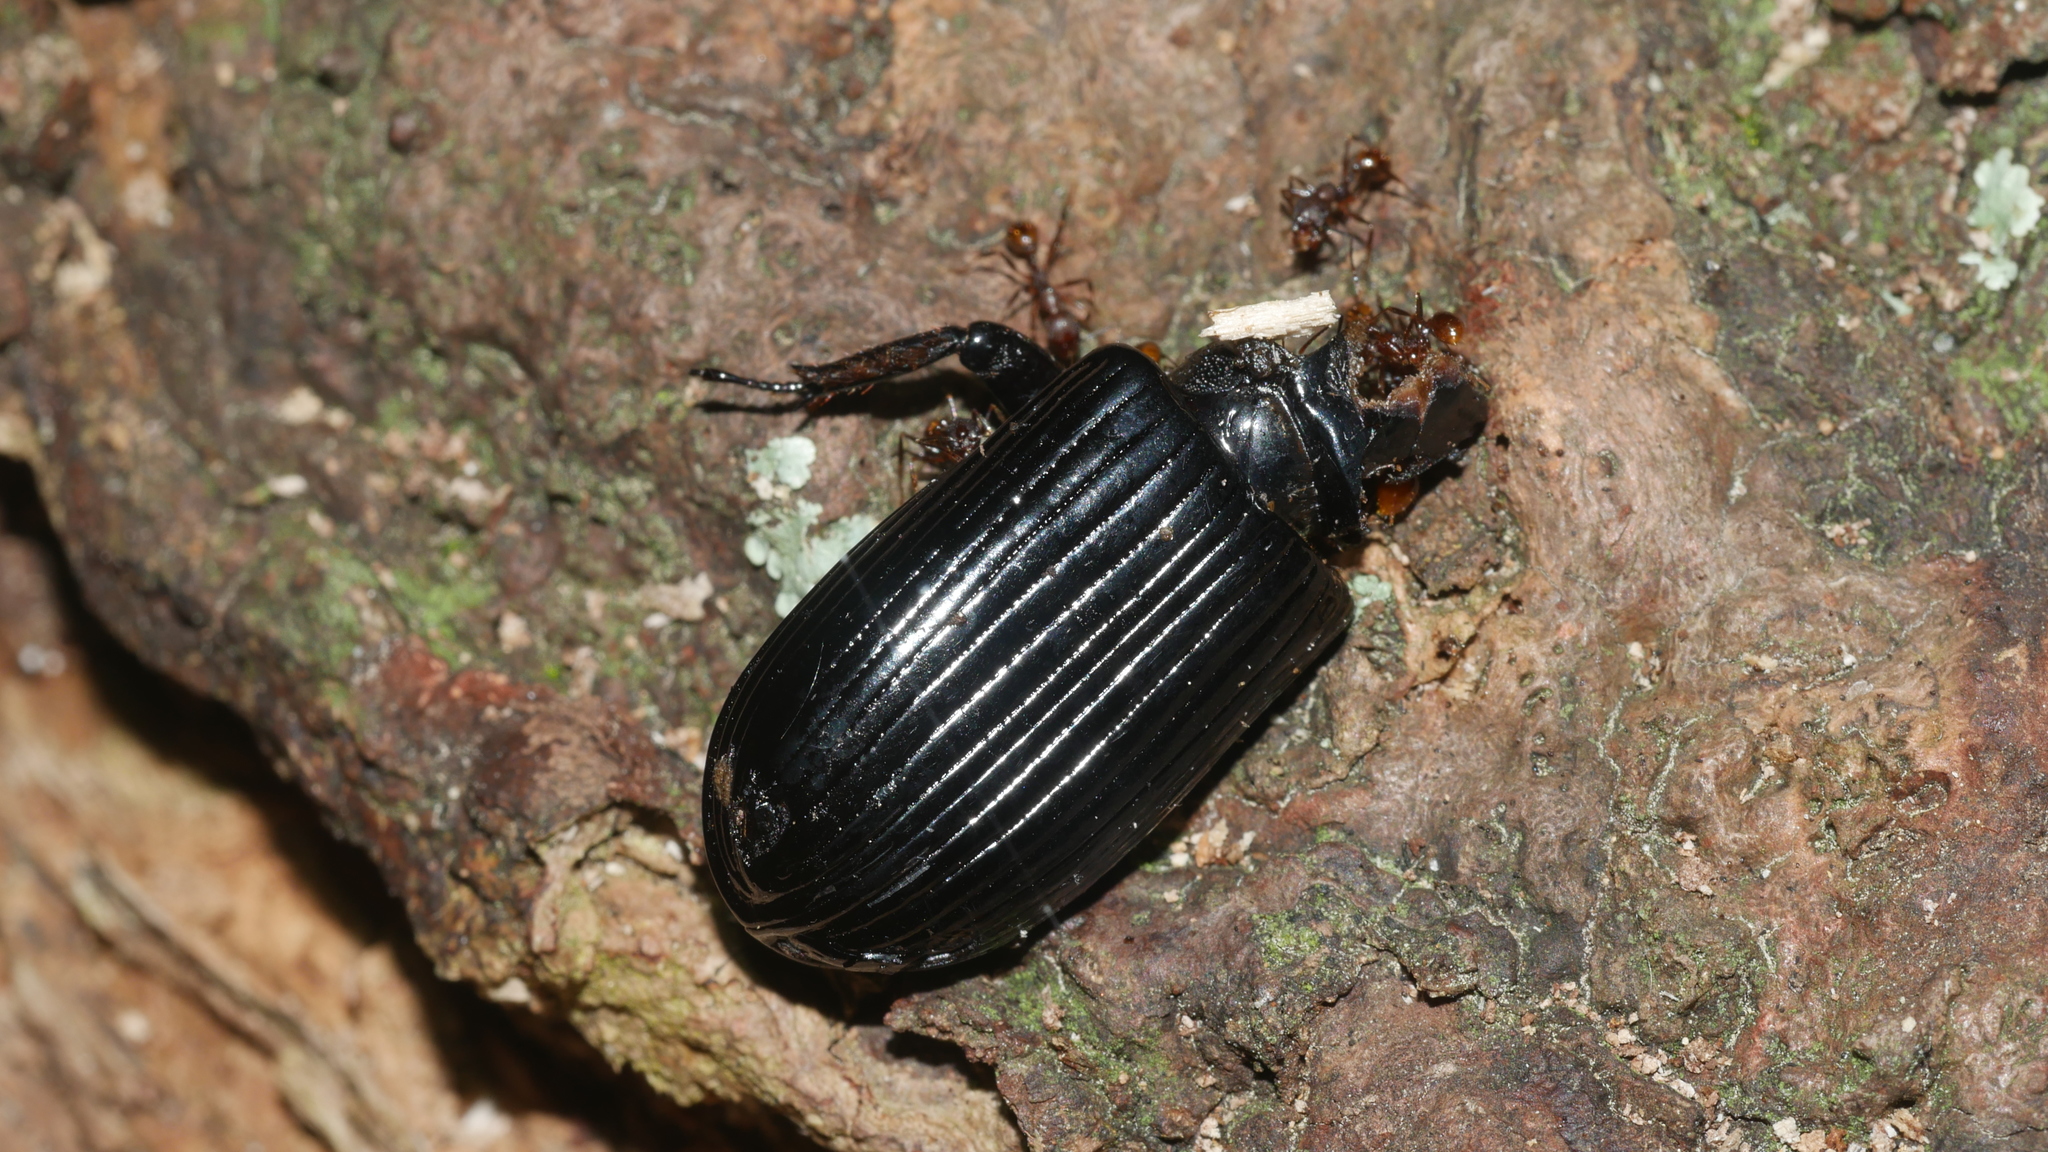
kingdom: Animalia
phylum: Arthropoda
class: Insecta
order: Coleoptera
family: Passalidae
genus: Odontotaenius
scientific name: Odontotaenius disjunctus
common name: Patent leather beetle
